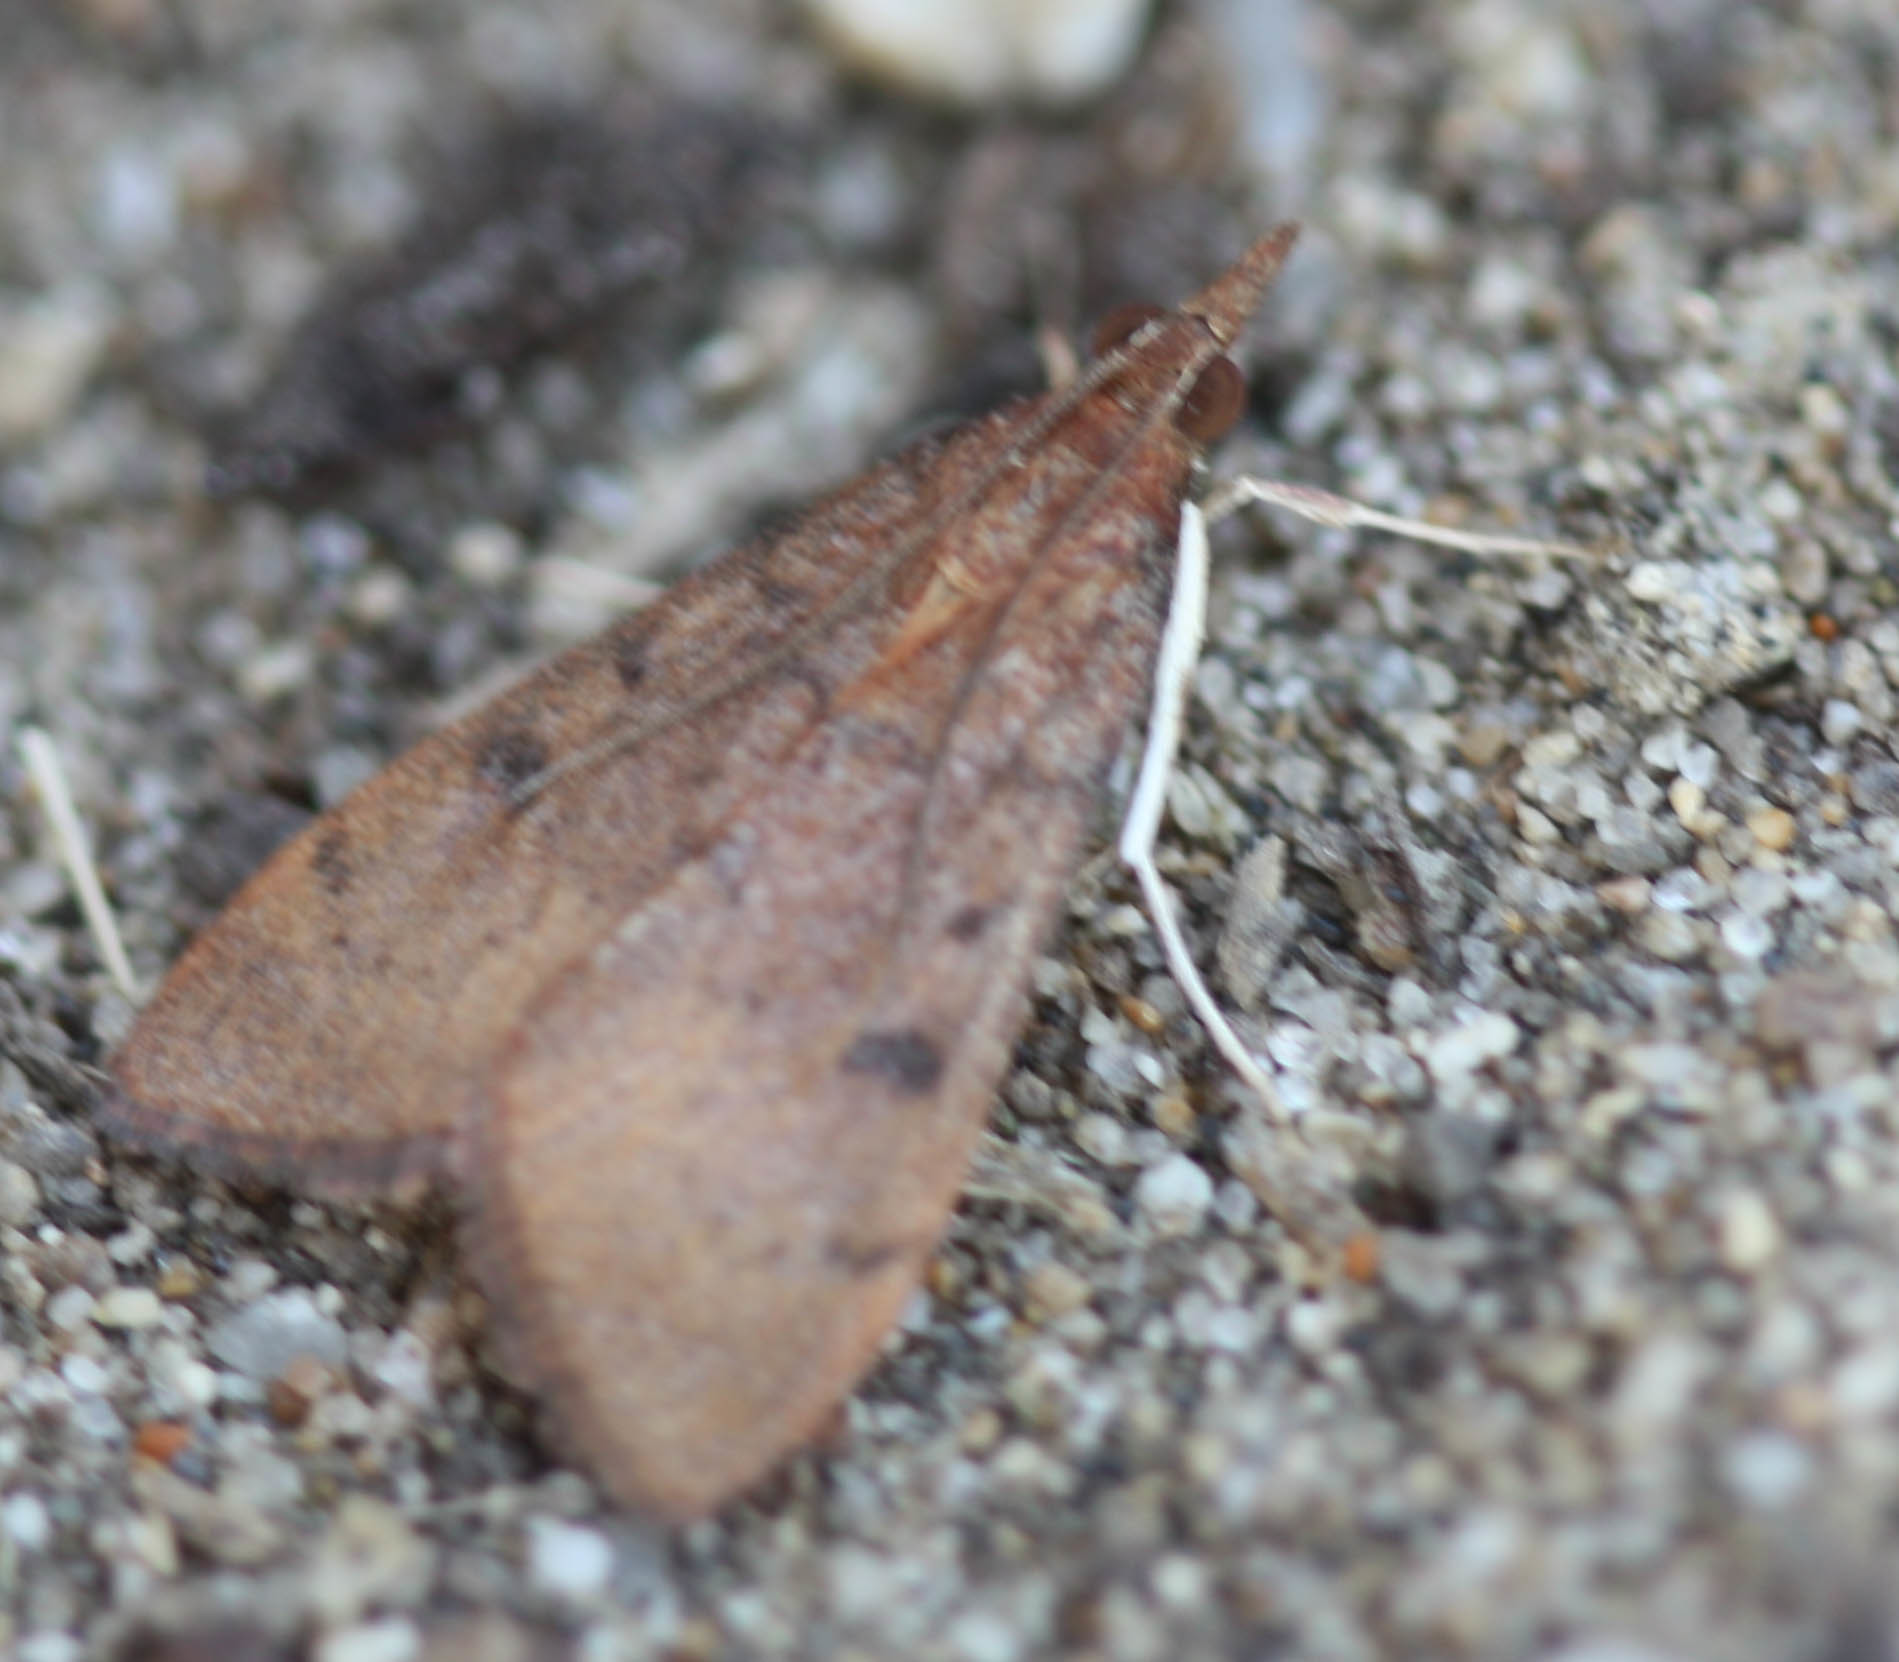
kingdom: Animalia
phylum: Arthropoda
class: Insecta
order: Lepidoptera
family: Crambidae
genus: Uresiphita
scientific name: Uresiphita reversalis
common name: Genista broom moth
